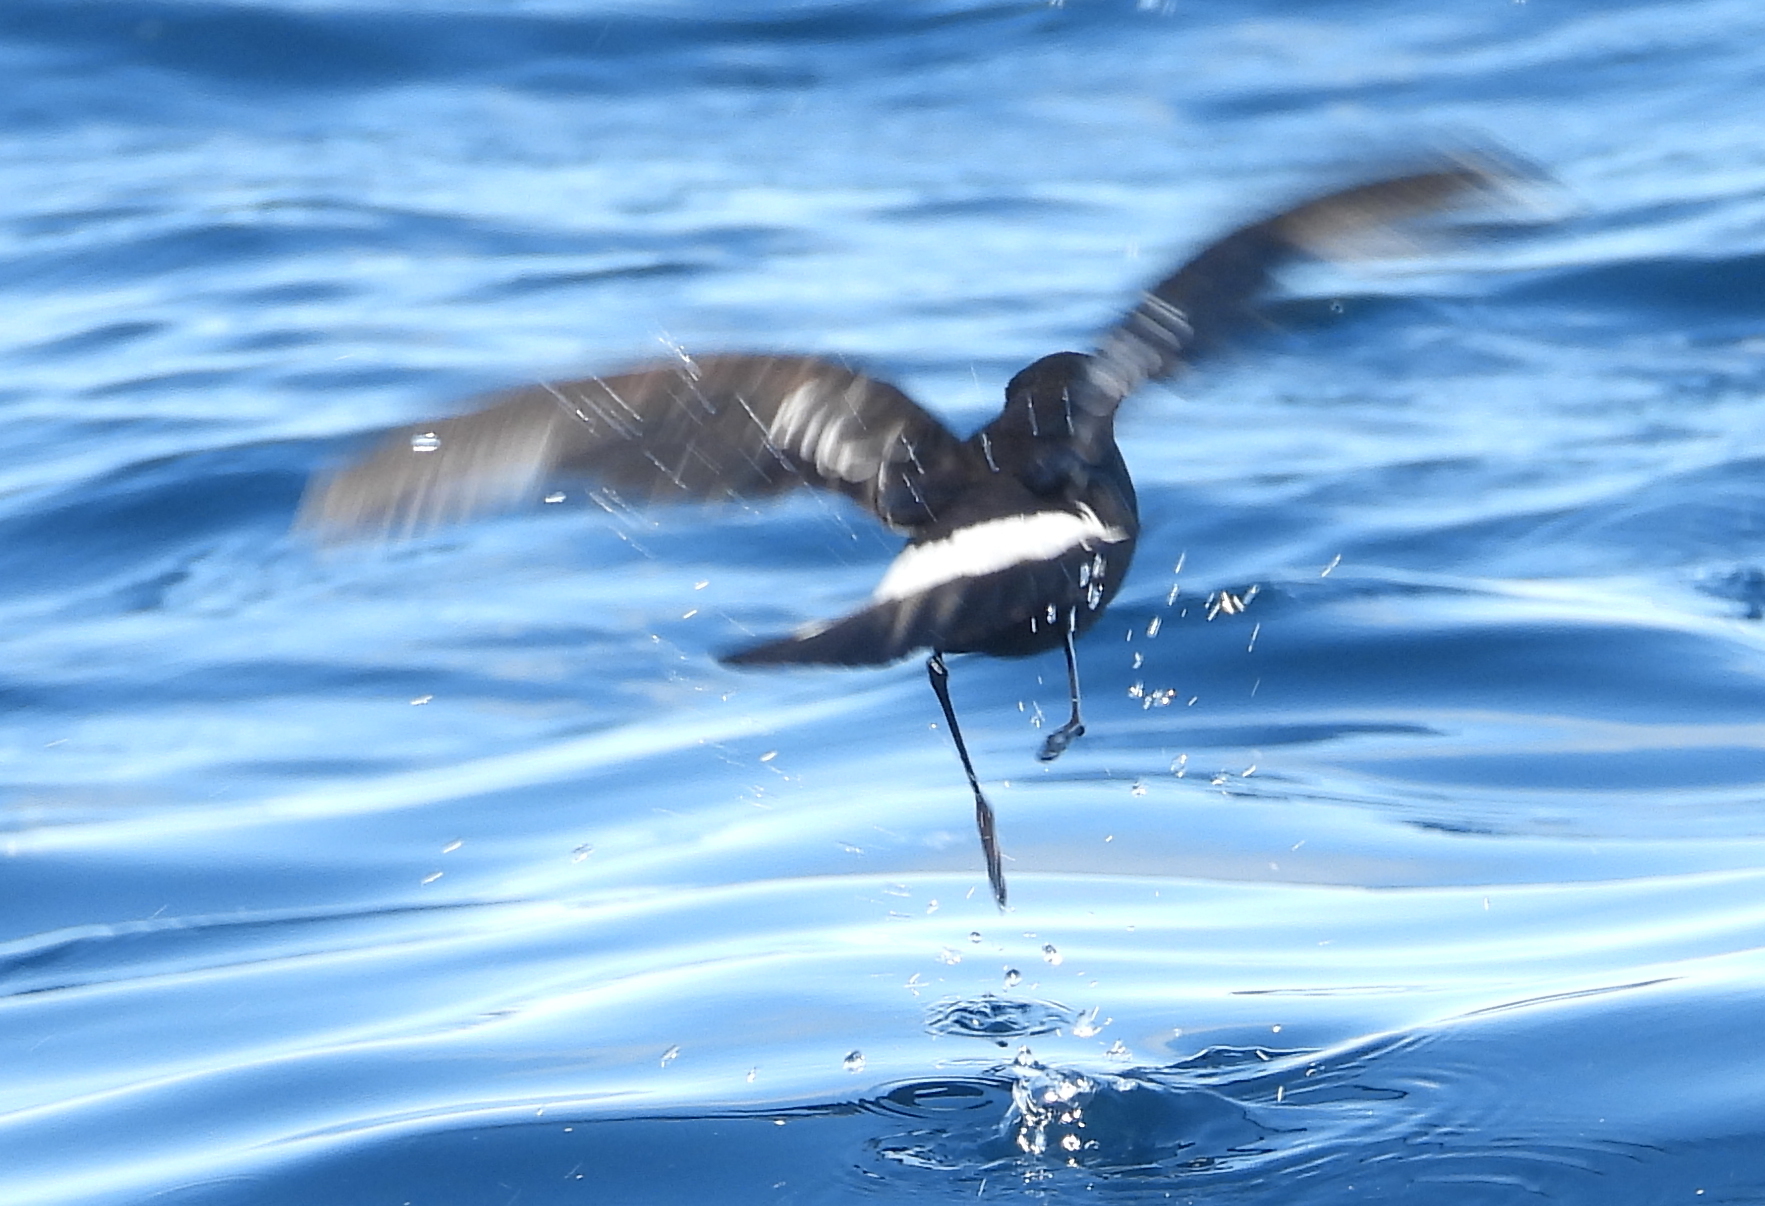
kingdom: Animalia
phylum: Chordata
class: Aves
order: Procellariiformes
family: Hydrobatidae
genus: Oceanites
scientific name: Oceanites oceanicus
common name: Wilson's storm petrel
